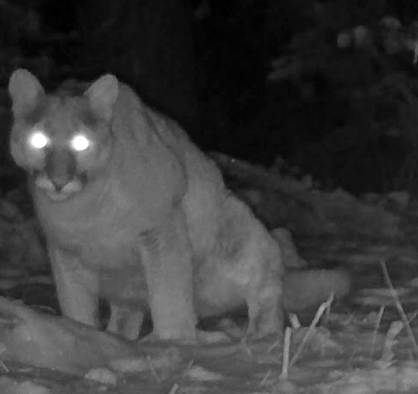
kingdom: Animalia
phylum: Chordata
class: Mammalia
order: Carnivora
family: Felidae
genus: Puma
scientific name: Puma concolor
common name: Puma
